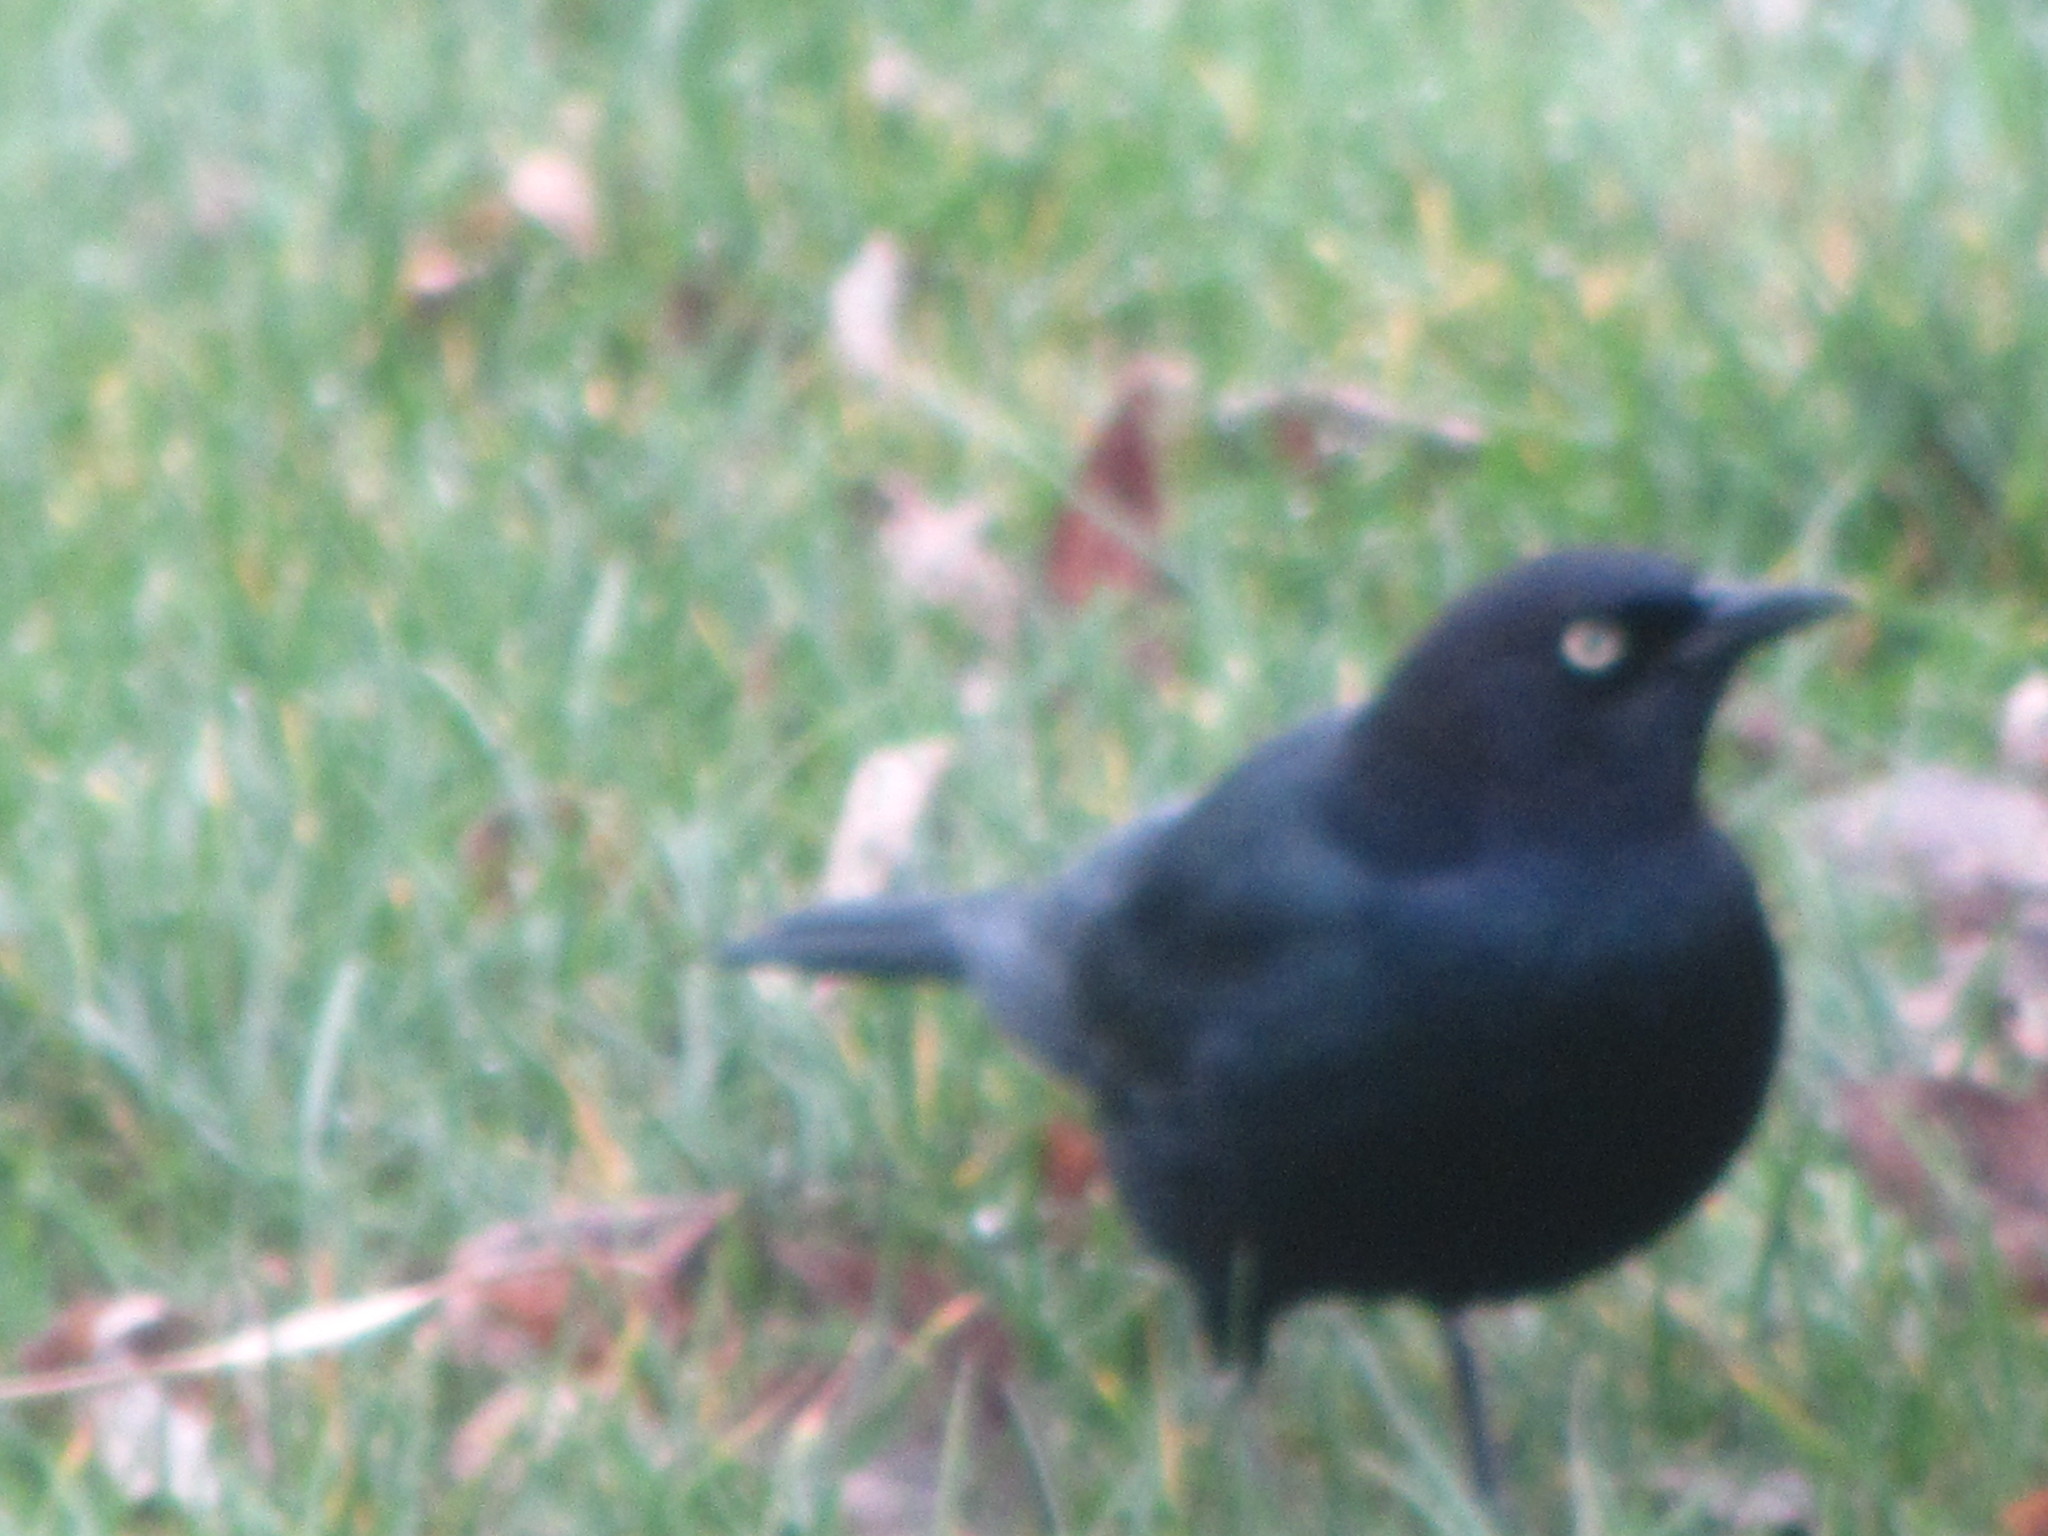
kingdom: Animalia
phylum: Chordata
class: Aves
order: Passeriformes
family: Icteridae
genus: Euphagus
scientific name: Euphagus cyanocephalus
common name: Brewer's blackbird
